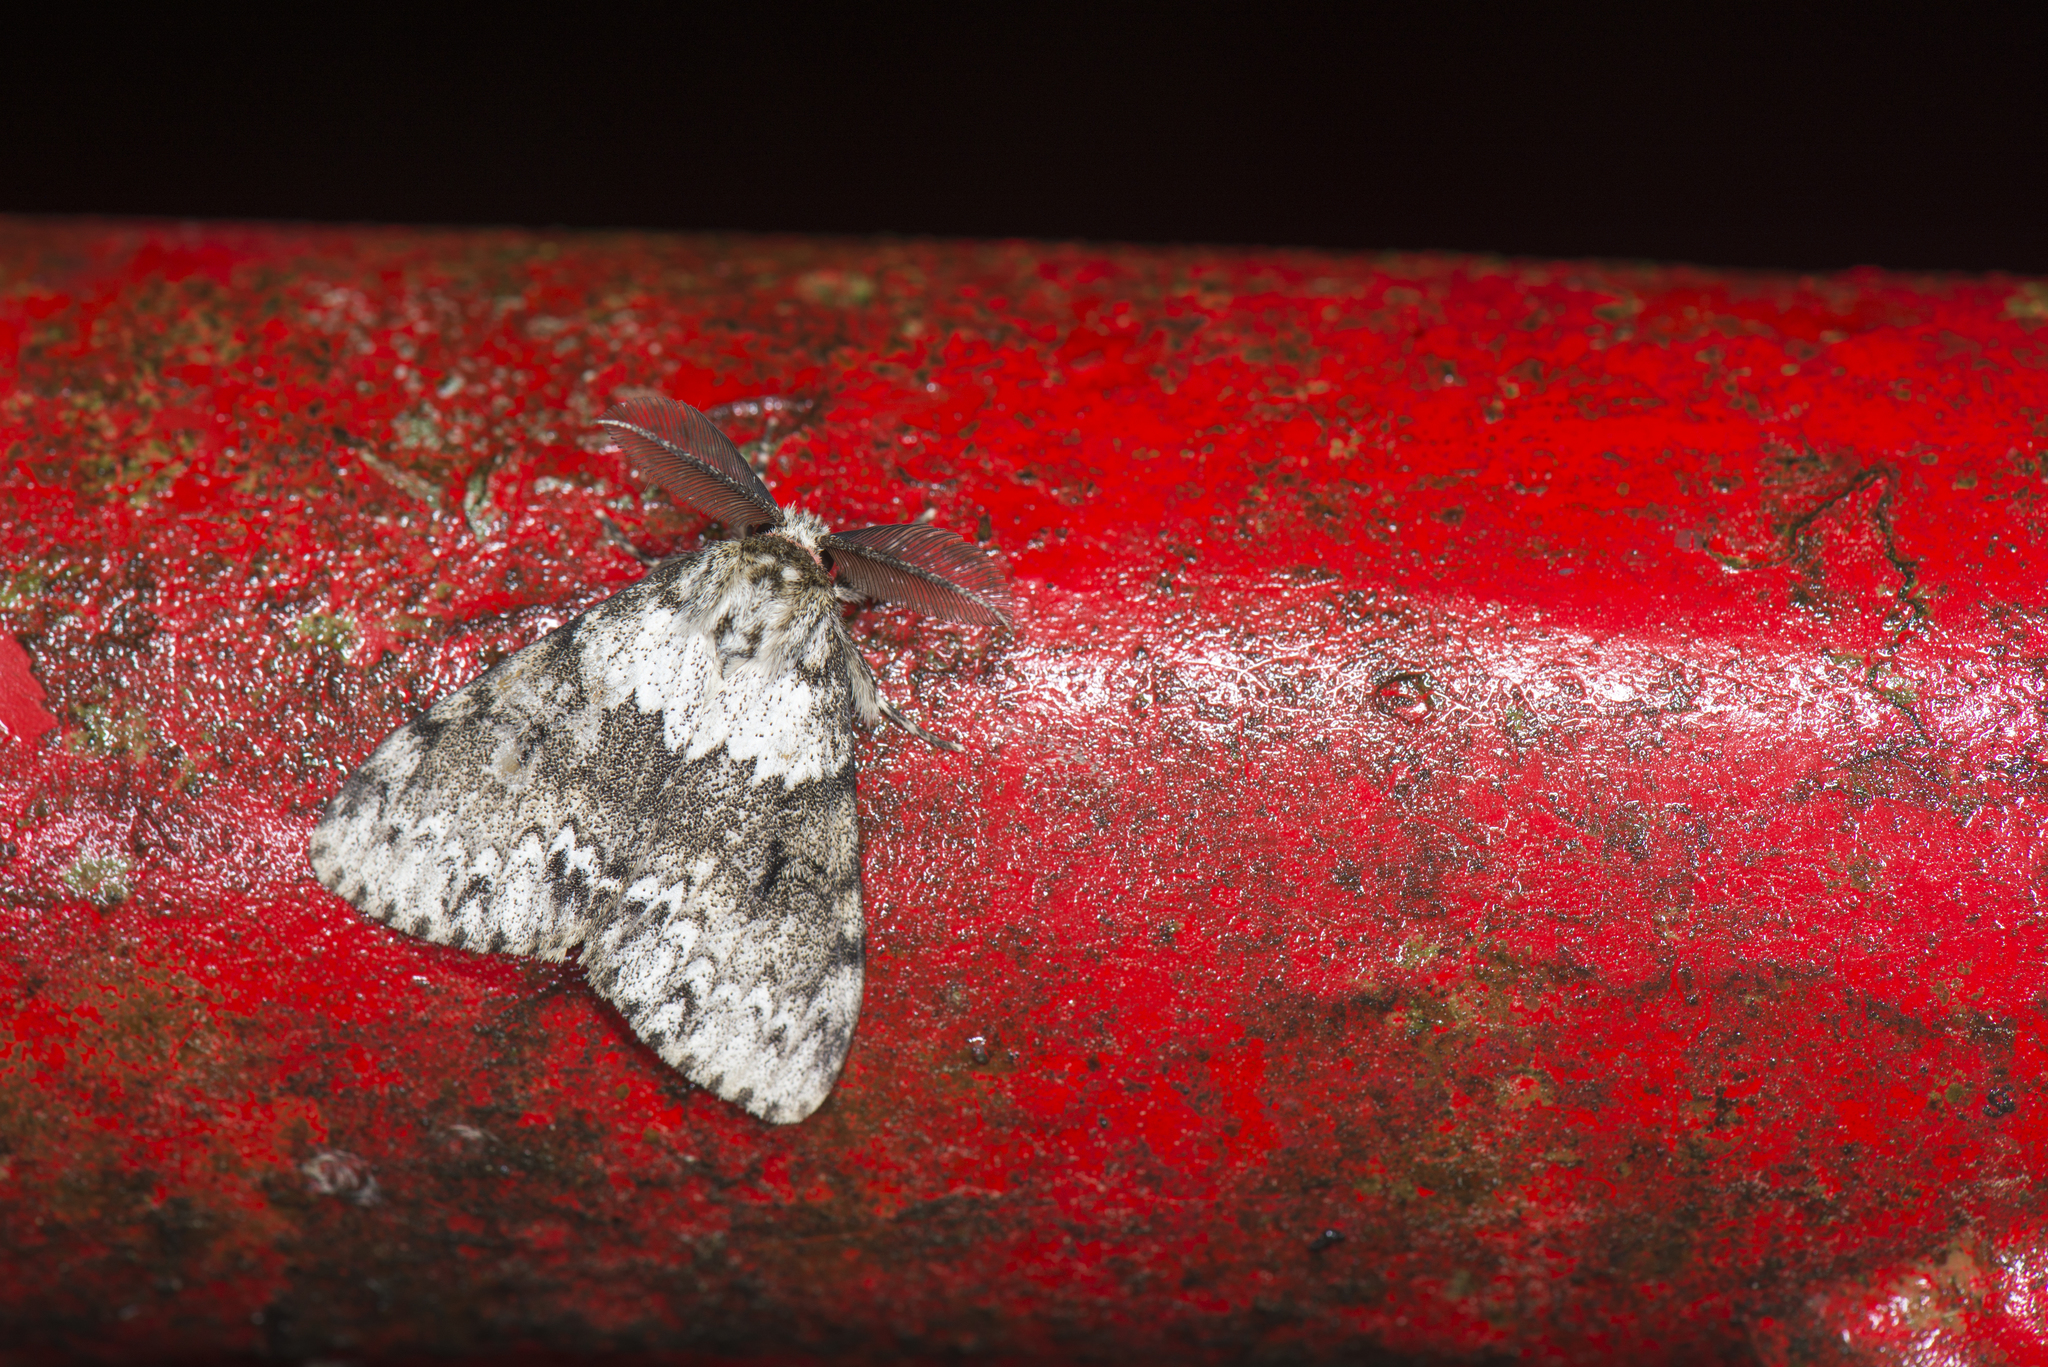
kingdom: Animalia
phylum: Arthropoda
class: Insecta
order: Lepidoptera
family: Erebidae
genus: Lymantria
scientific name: Lymantria sinica
